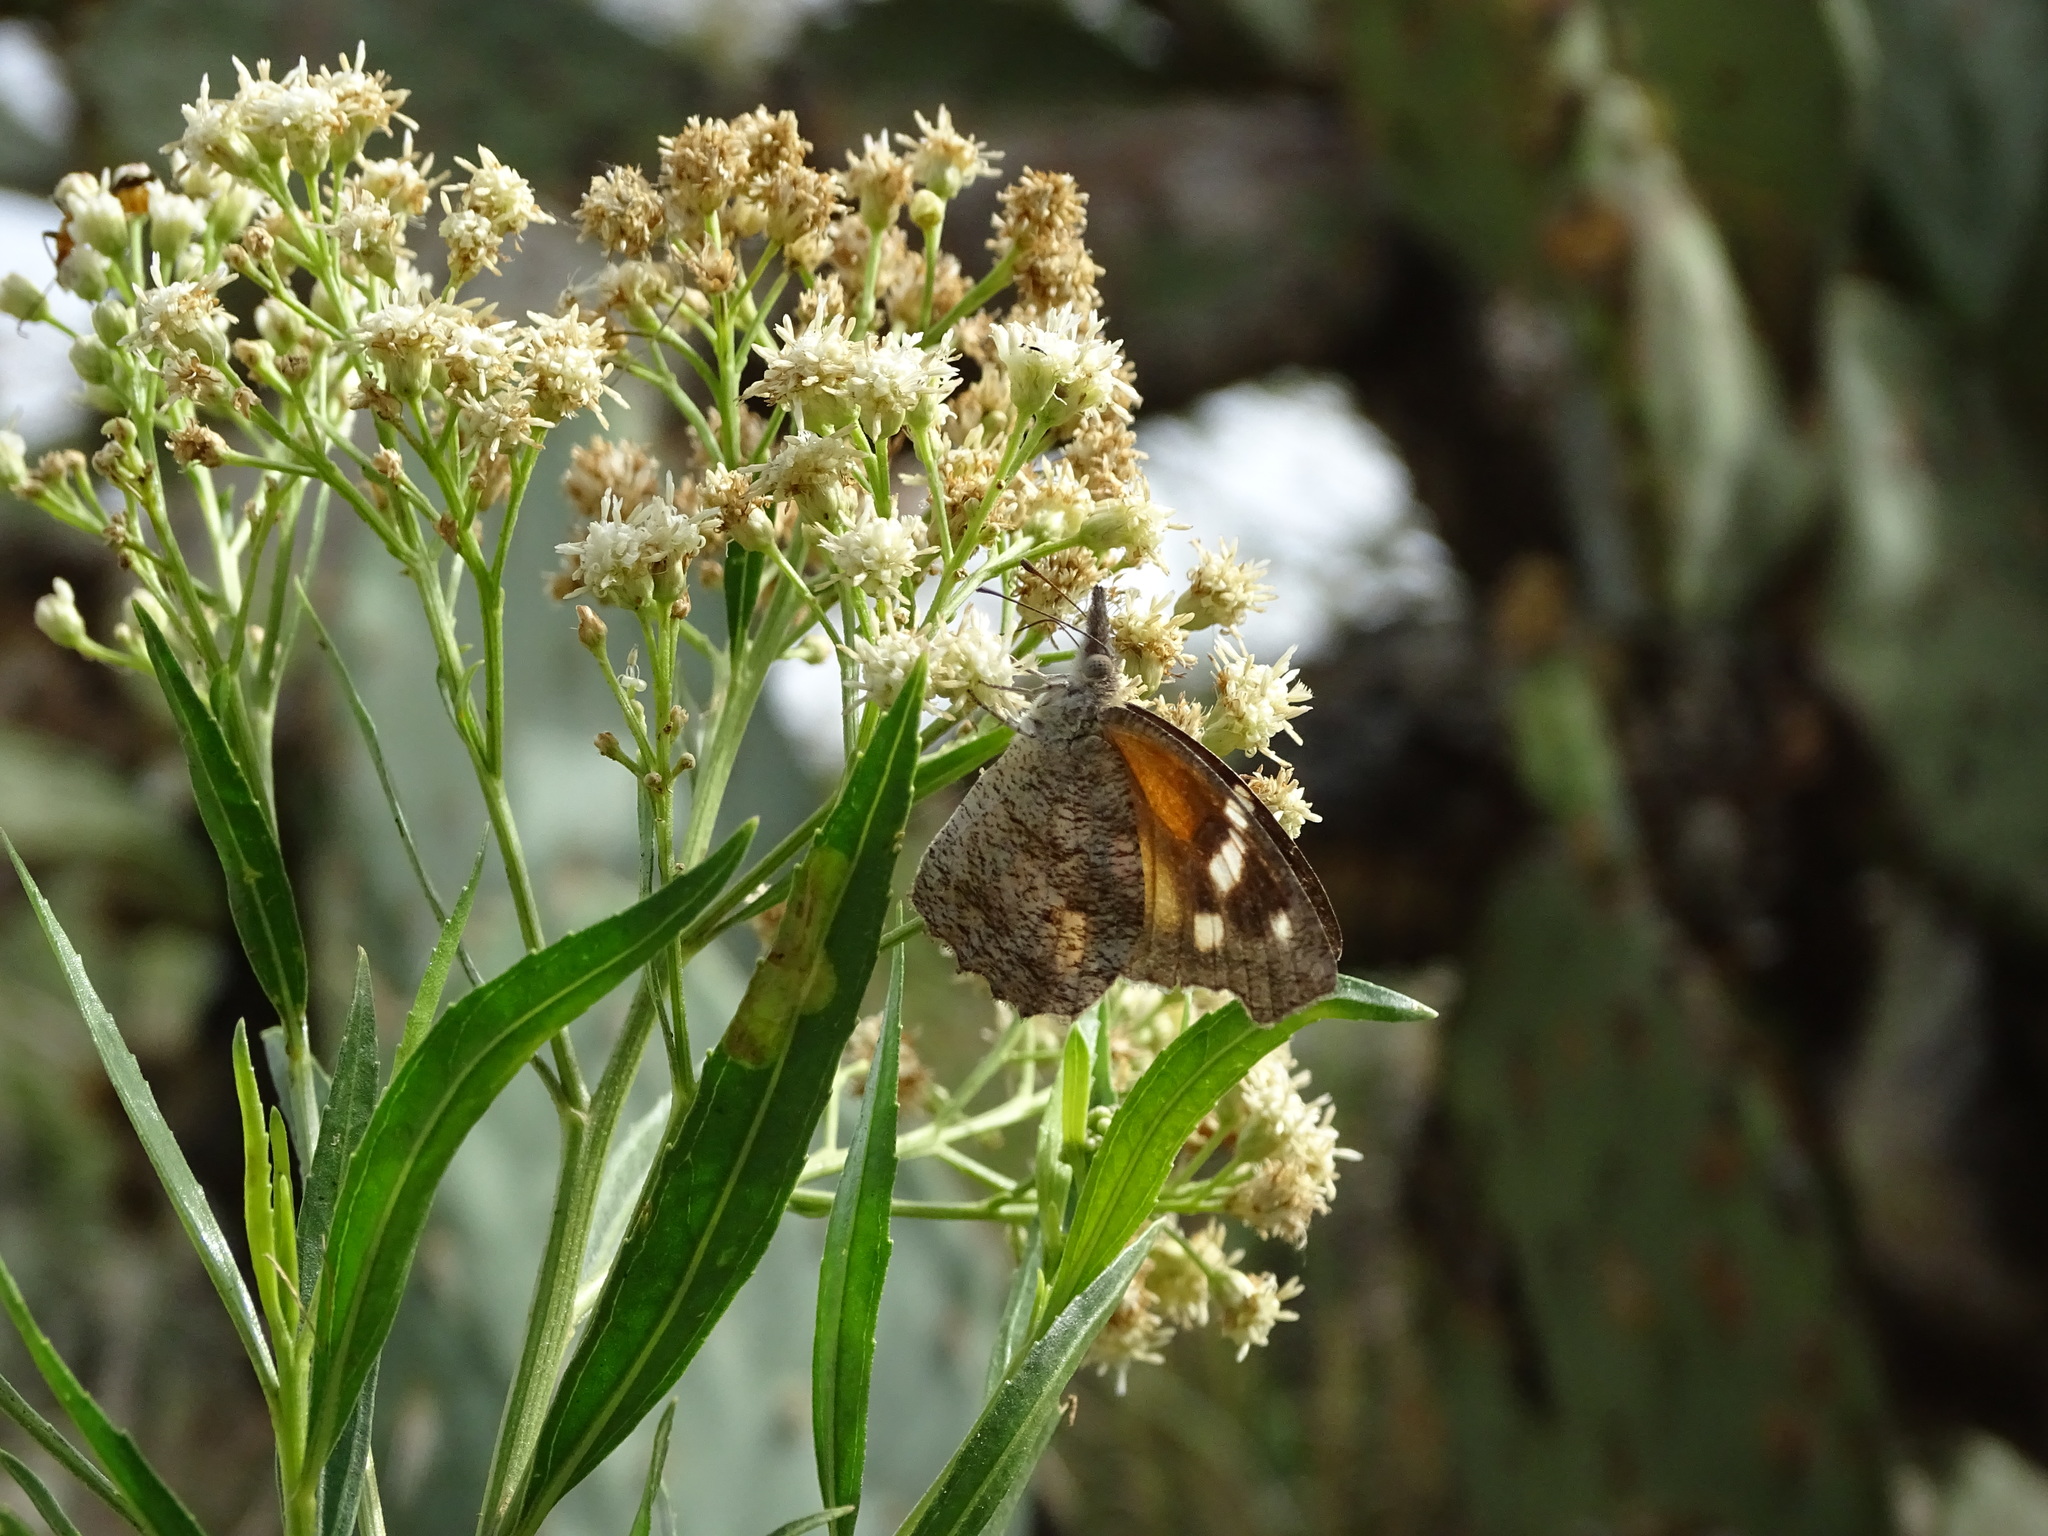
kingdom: Animalia
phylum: Arthropoda
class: Insecta
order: Lepidoptera
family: Nymphalidae
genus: Libytheana
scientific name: Libytheana carinenta
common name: American snout
